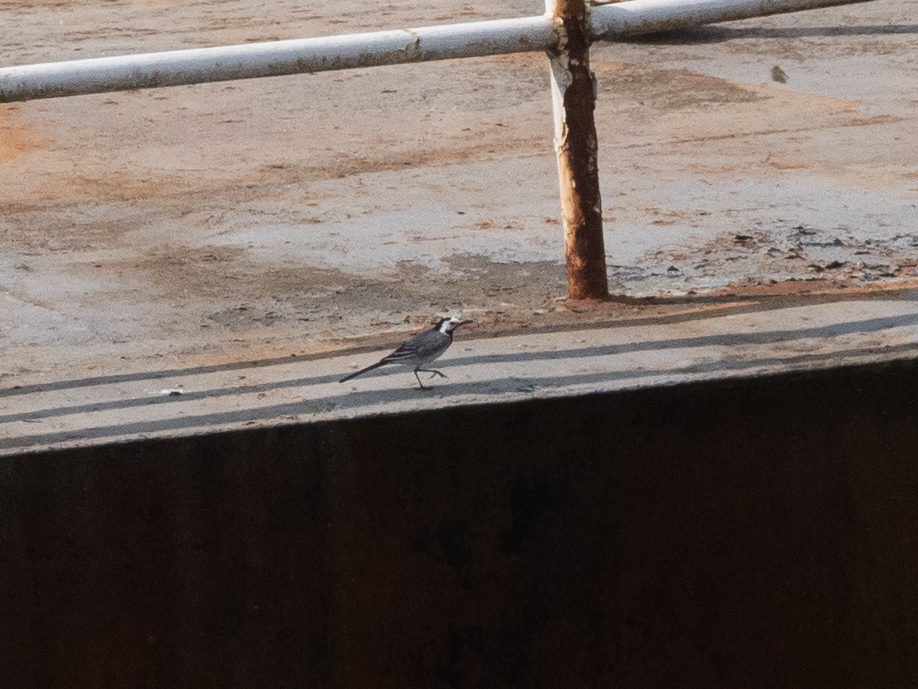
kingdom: Animalia
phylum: Chordata
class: Aves
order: Passeriformes
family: Motacillidae
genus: Motacilla
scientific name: Motacilla alba
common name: White wagtail
